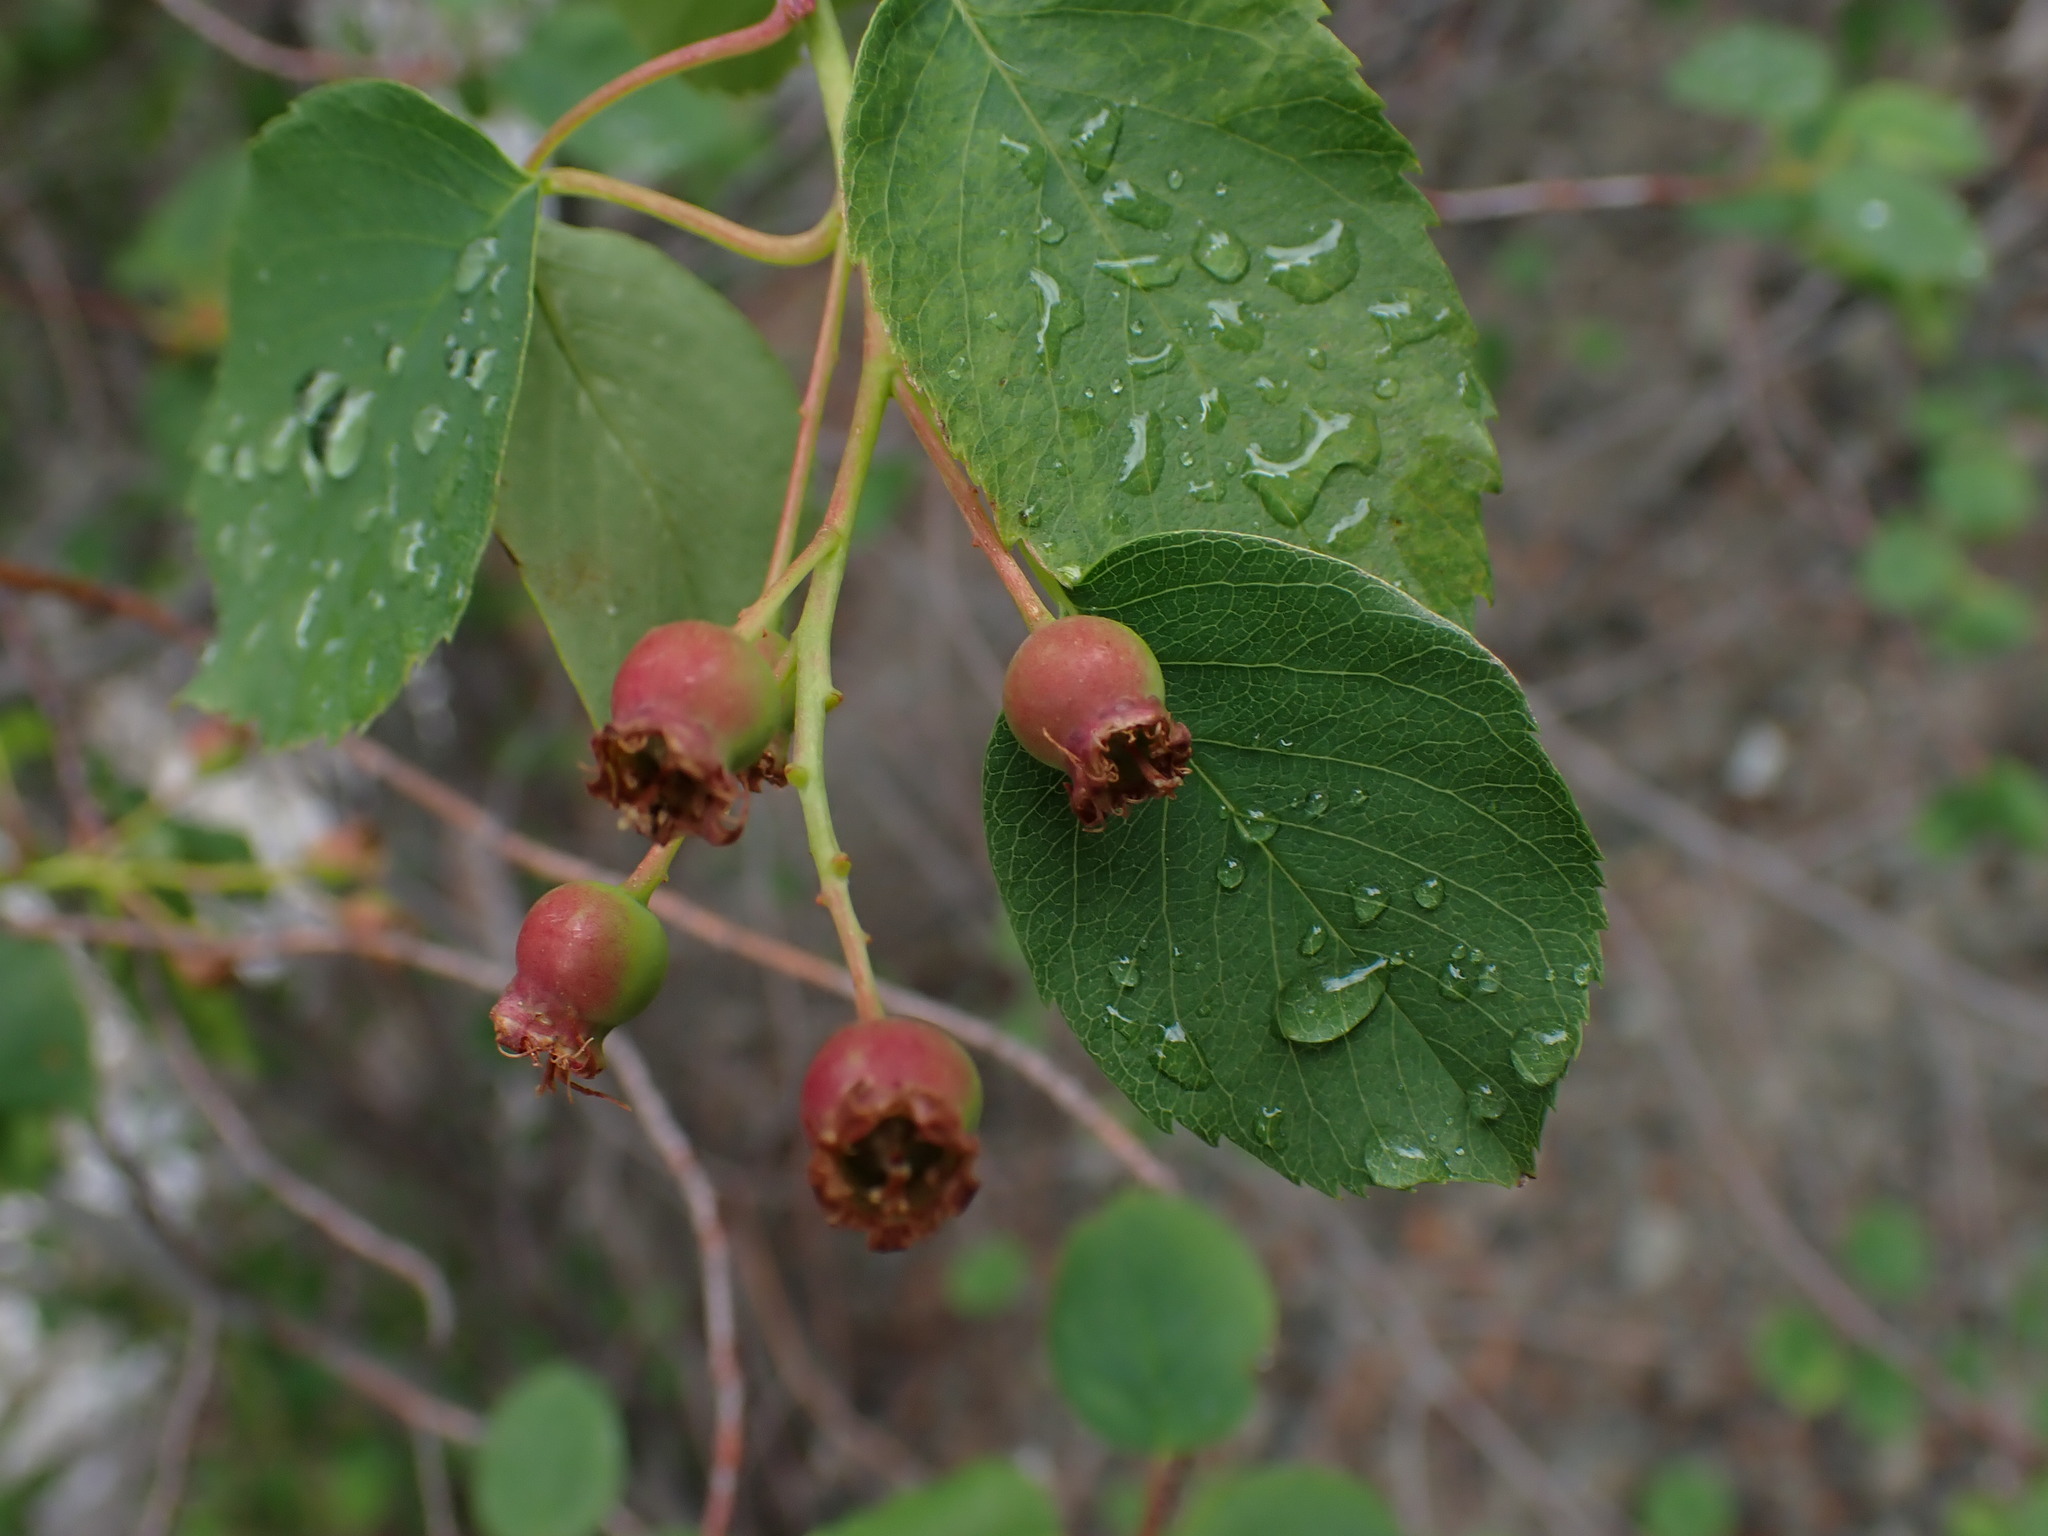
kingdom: Plantae
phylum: Tracheophyta
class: Magnoliopsida
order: Rosales
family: Rosaceae
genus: Amelanchier
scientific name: Amelanchier alnifolia
